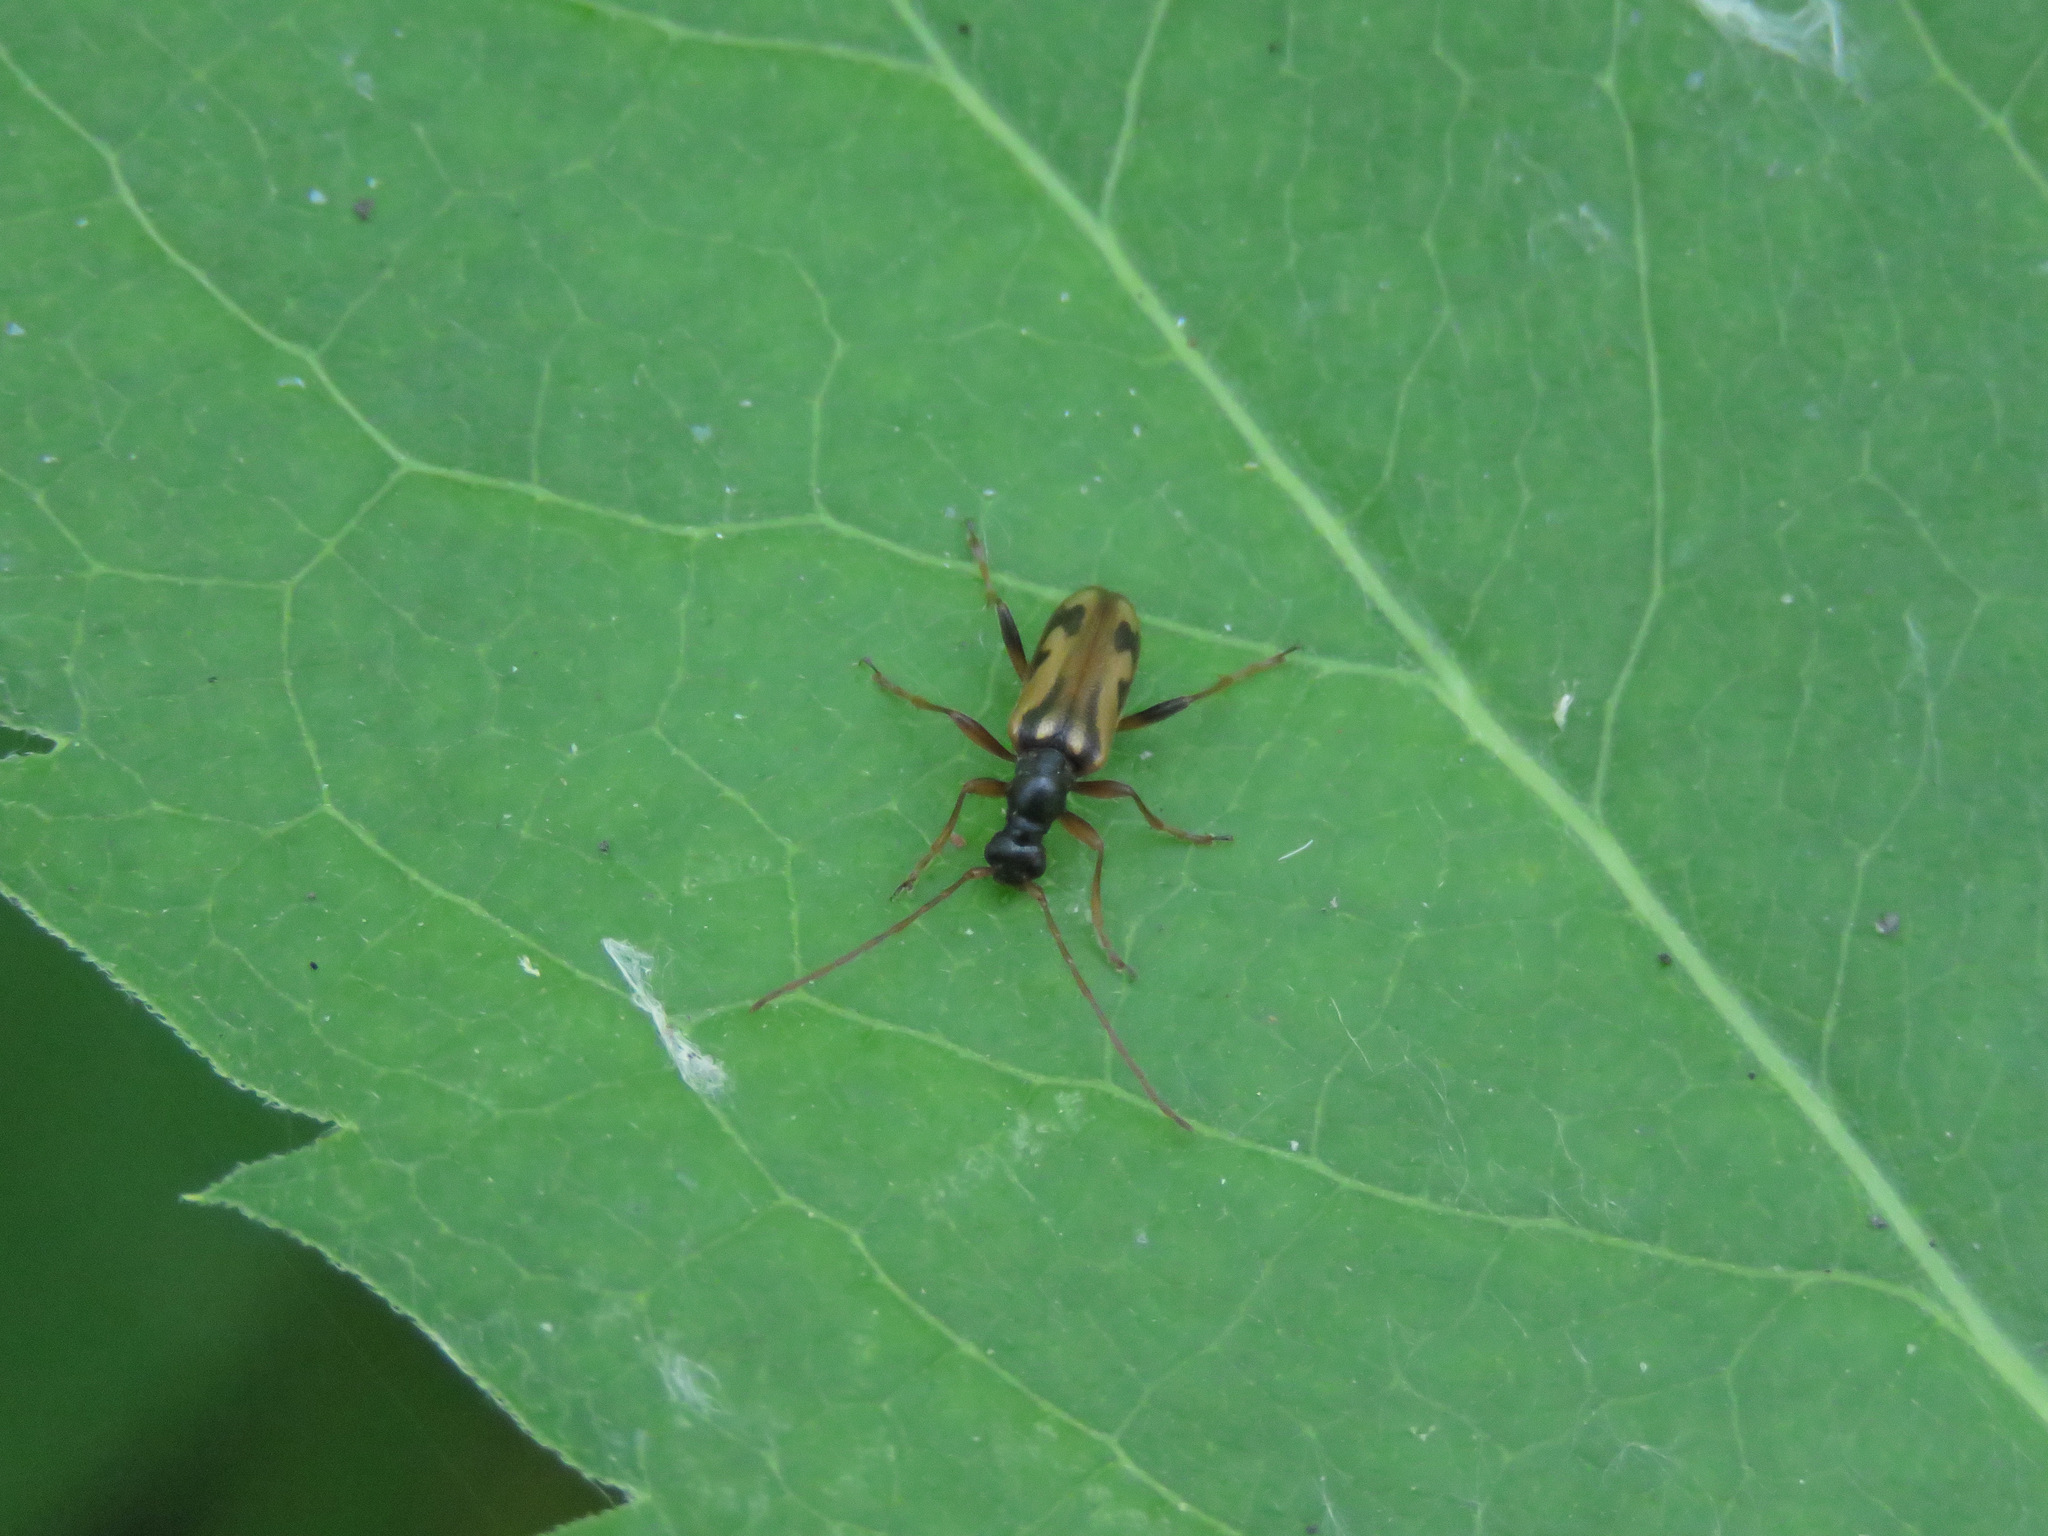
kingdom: Animalia
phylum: Arthropoda
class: Insecta
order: Coleoptera
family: Cerambycidae
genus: Pidonia
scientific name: Pidonia scripta
